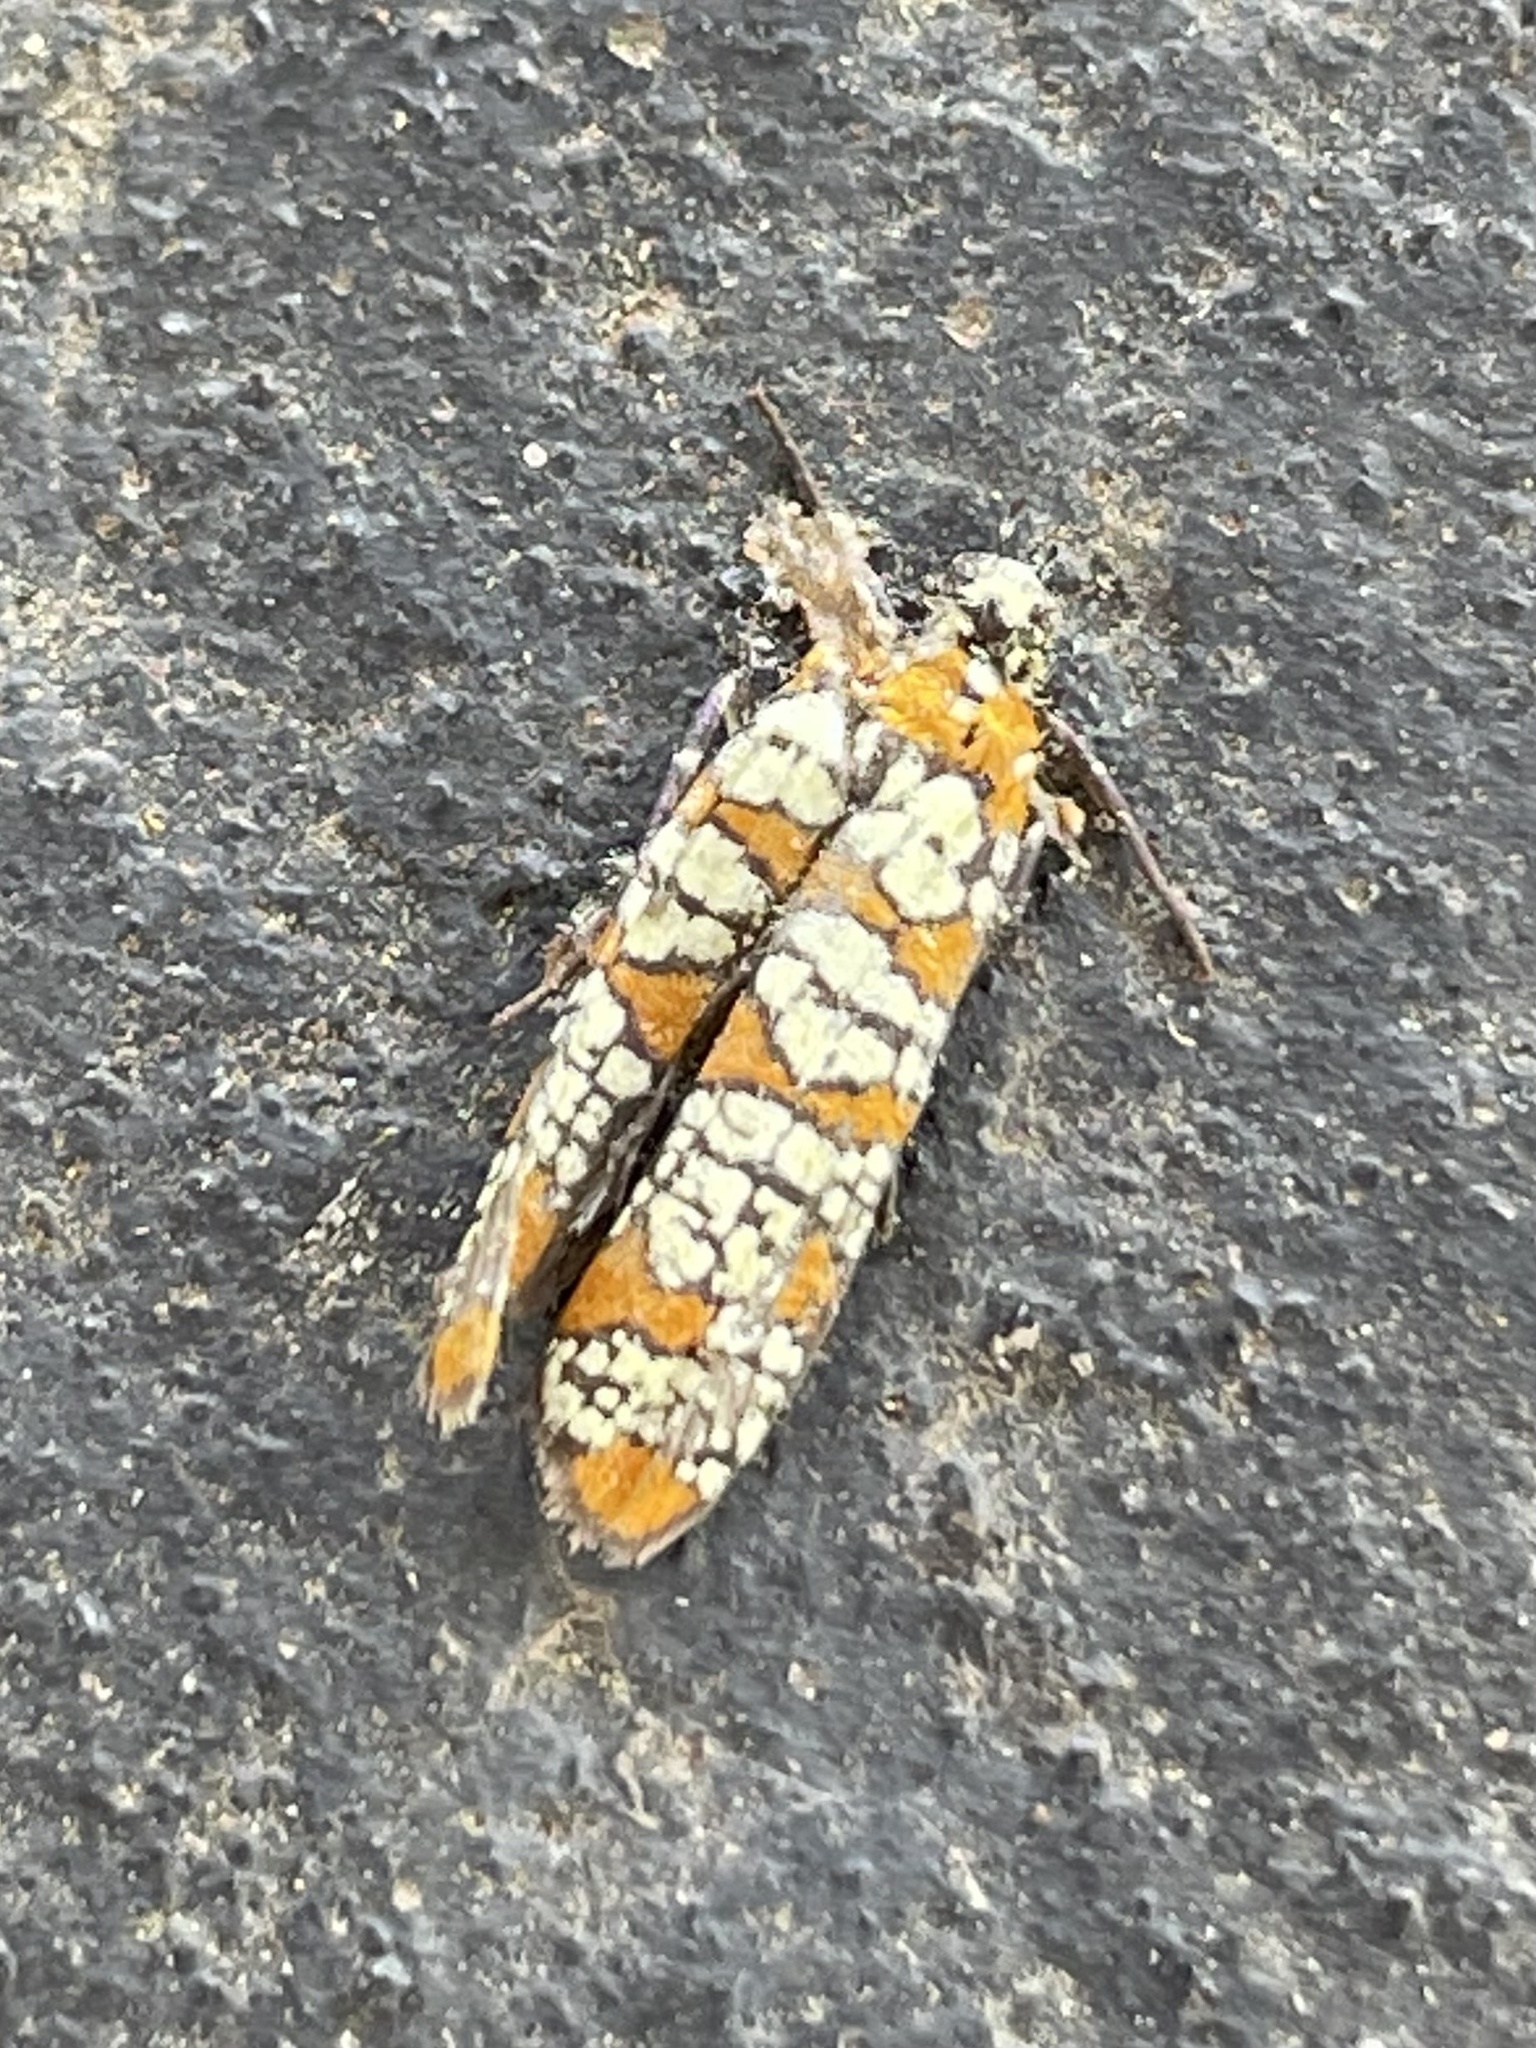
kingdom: Animalia
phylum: Arthropoda
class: Insecta
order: Lepidoptera
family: Attevidae
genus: Atteva
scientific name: Atteva punctella
